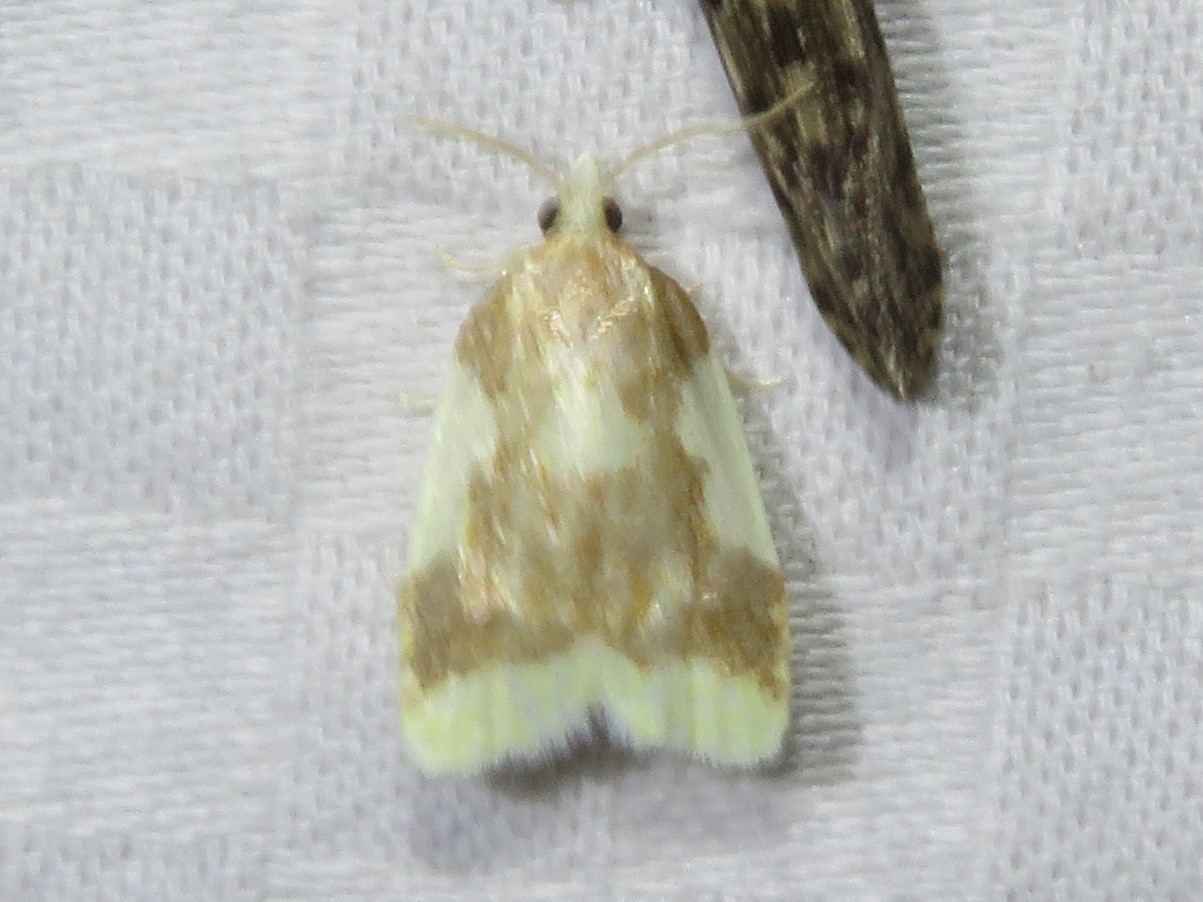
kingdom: Animalia
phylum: Arthropoda
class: Insecta
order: Lepidoptera
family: Tortricidae
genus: Sparganothis
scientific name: Sparganothis pulcherrimana
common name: Beautiful sparganothis
